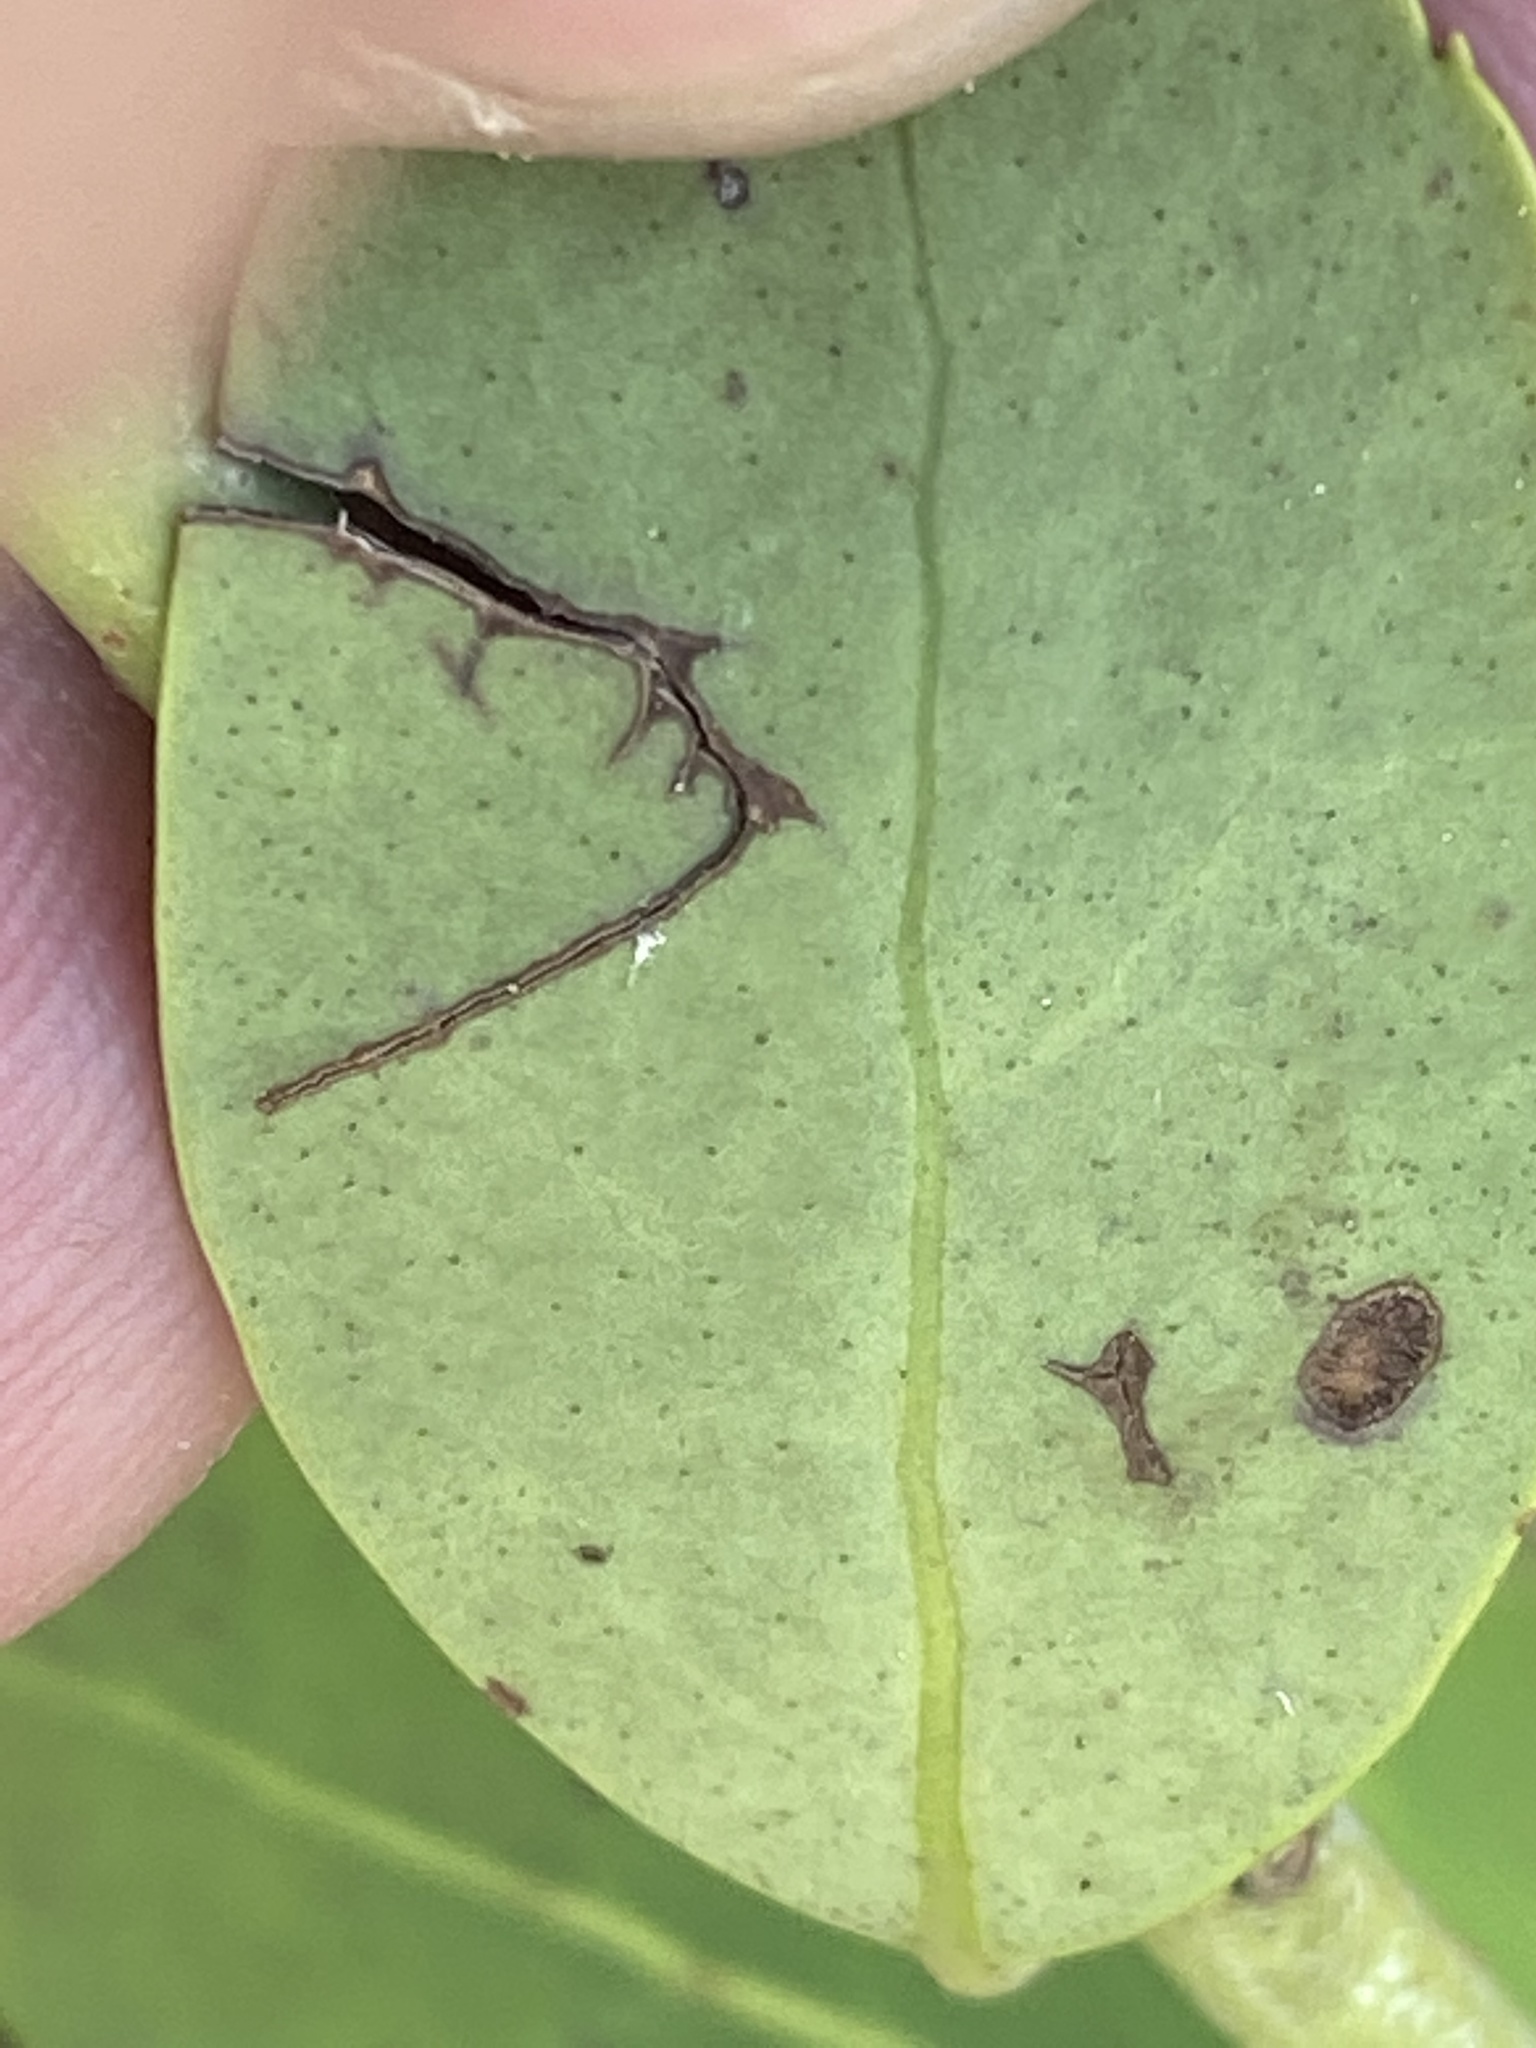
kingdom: Plantae
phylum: Tracheophyta
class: Magnoliopsida
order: Aquifoliales
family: Aquifoliaceae
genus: Ilex
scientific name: Ilex glabra
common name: Bitter gallberry
